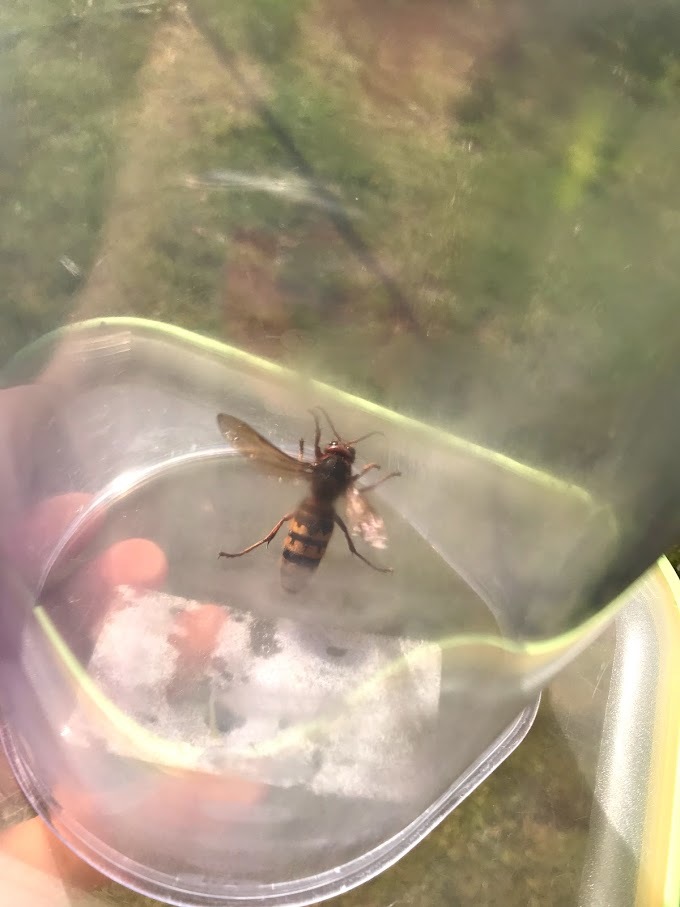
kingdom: Animalia
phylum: Arthropoda
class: Insecta
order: Hymenoptera
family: Vespidae
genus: Vespa
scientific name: Vespa crabro
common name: Hornet
